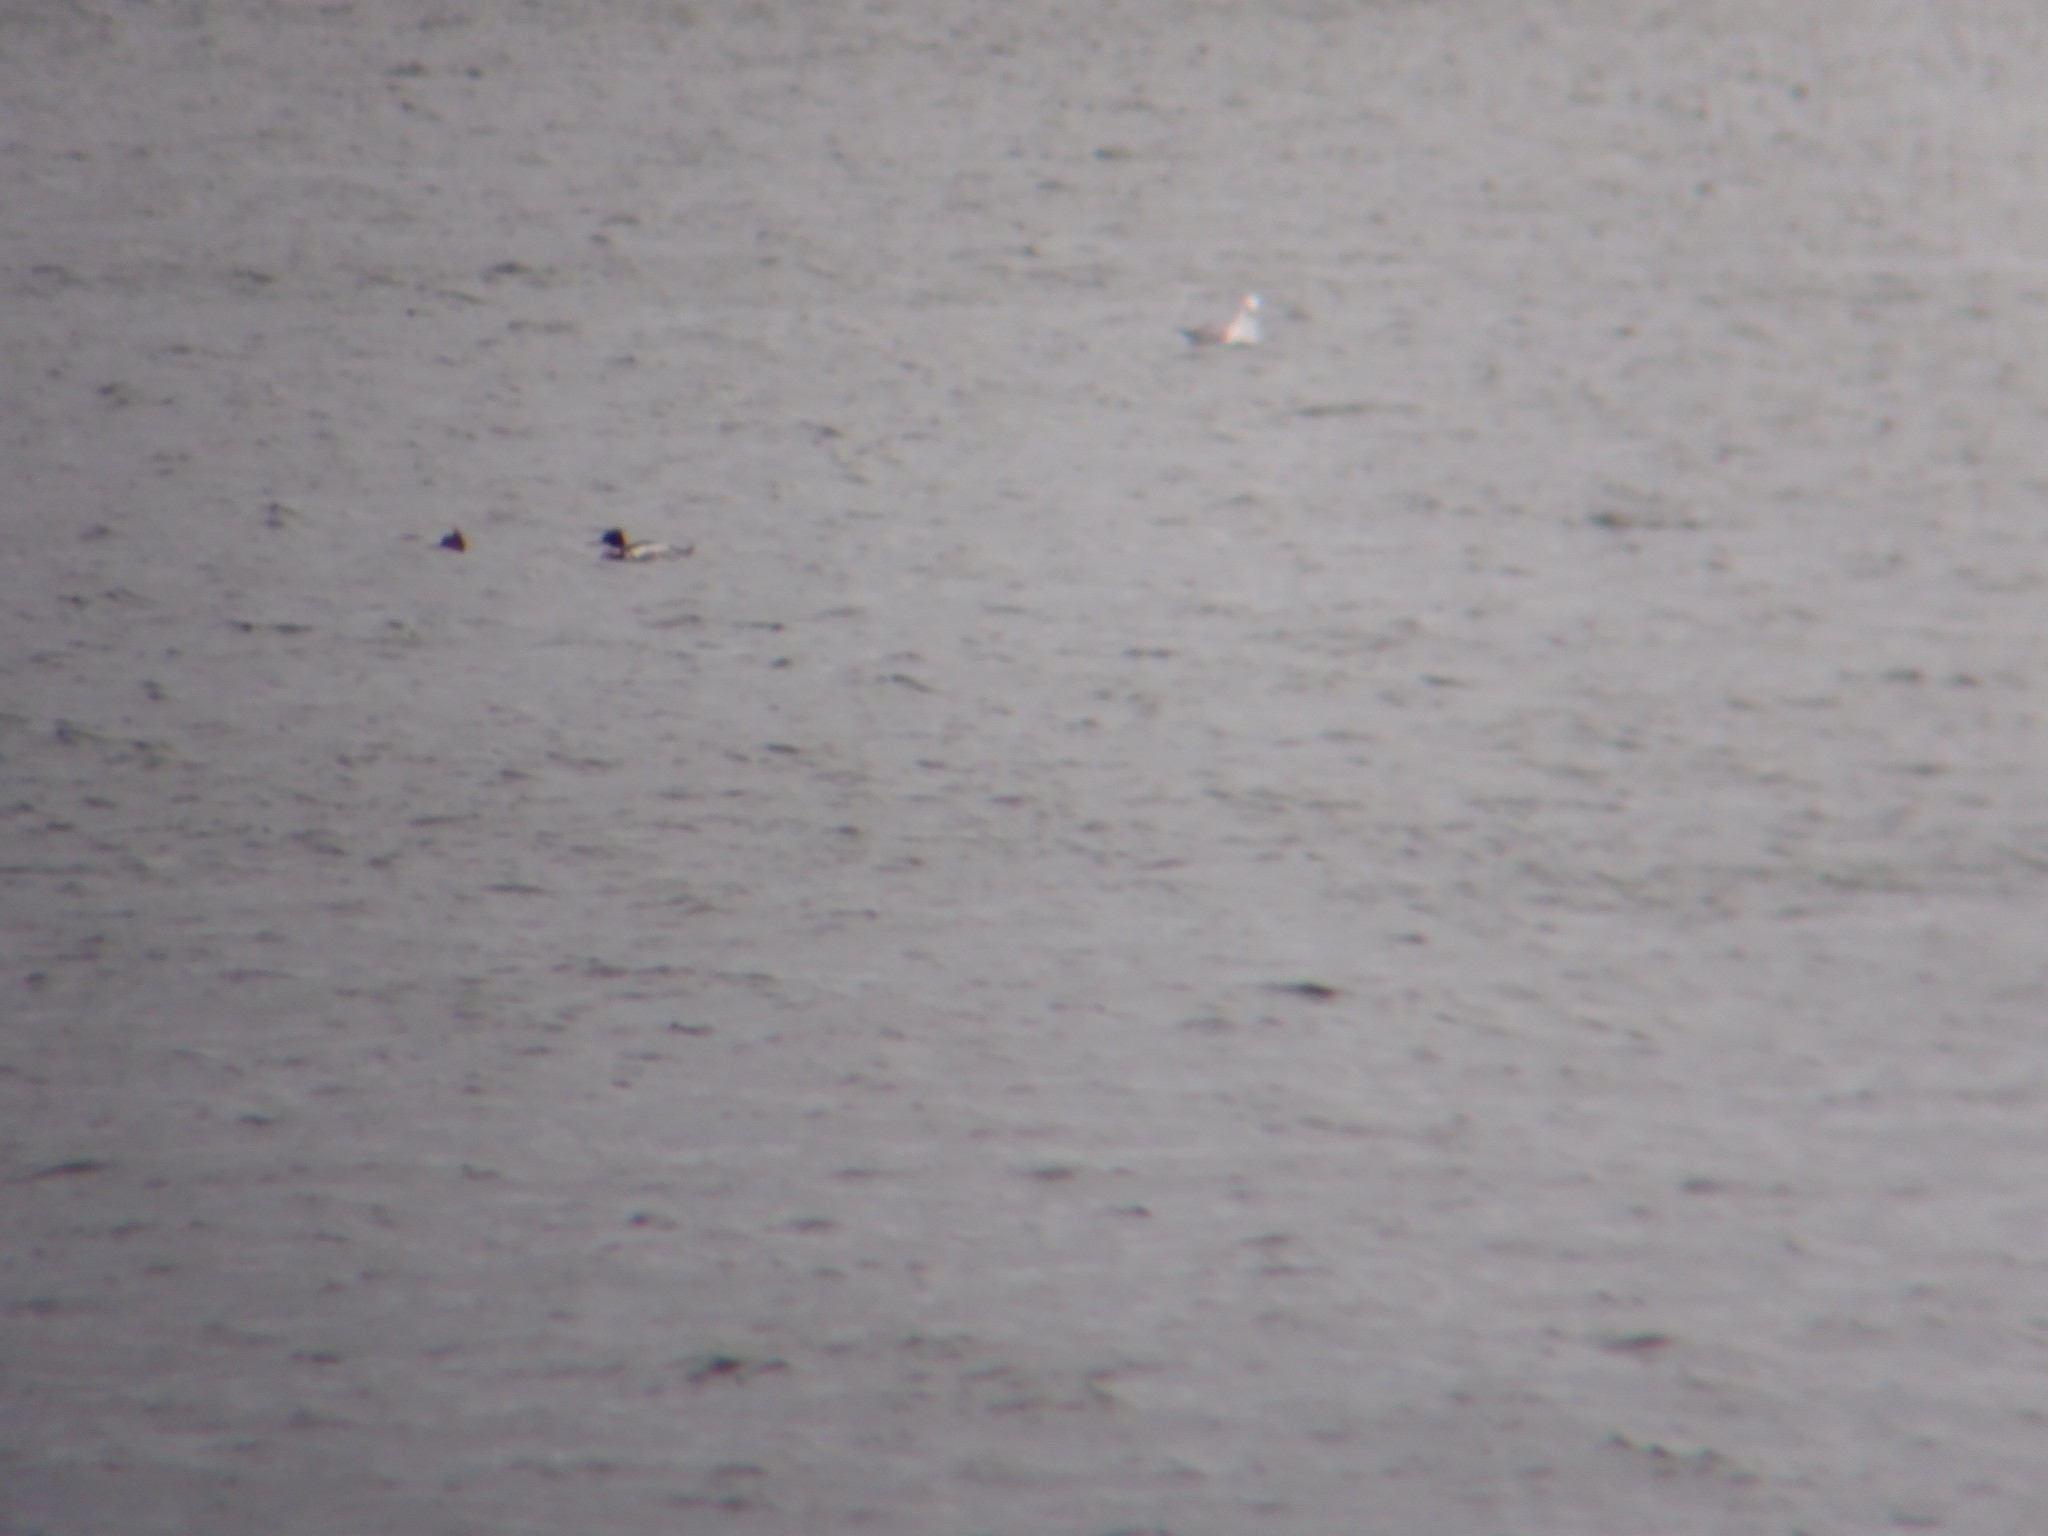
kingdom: Animalia
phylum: Chordata
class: Aves
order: Anseriformes
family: Anatidae
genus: Mergus
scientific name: Mergus serrator
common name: Red-breasted merganser
